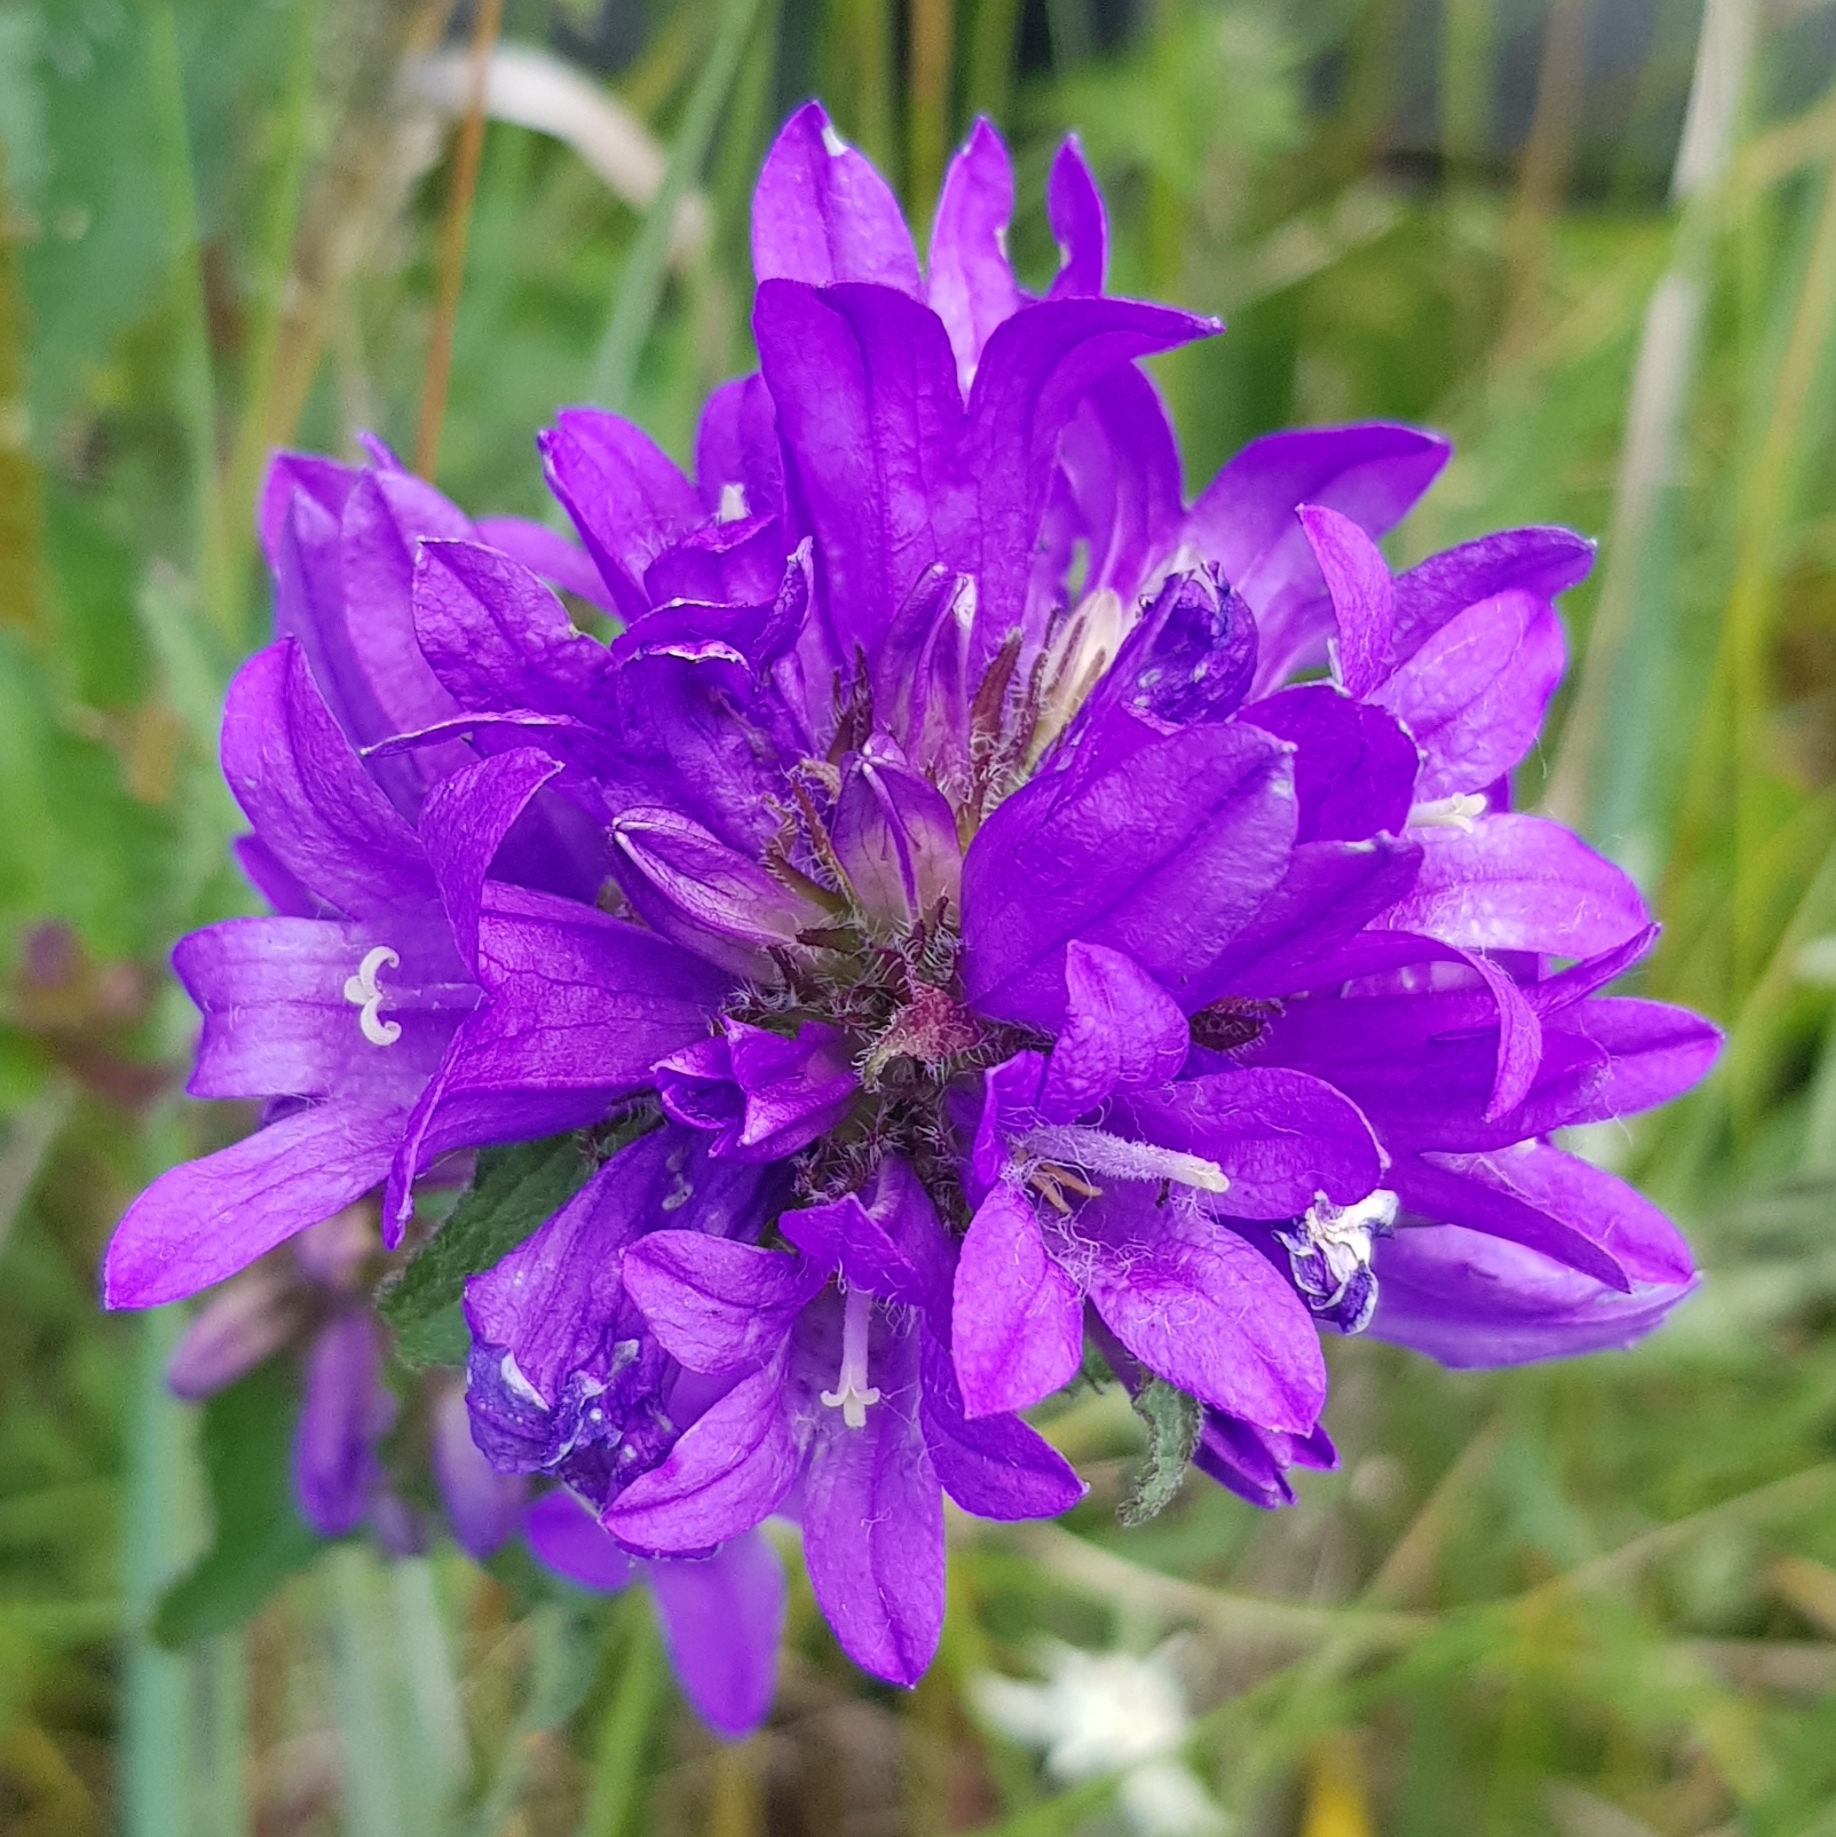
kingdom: Plantae
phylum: Tracheophyta
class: Magnoliopsida
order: Asterales
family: Campanulaceae
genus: Campanula
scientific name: Campanula glomerata
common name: Clustered bellflower
